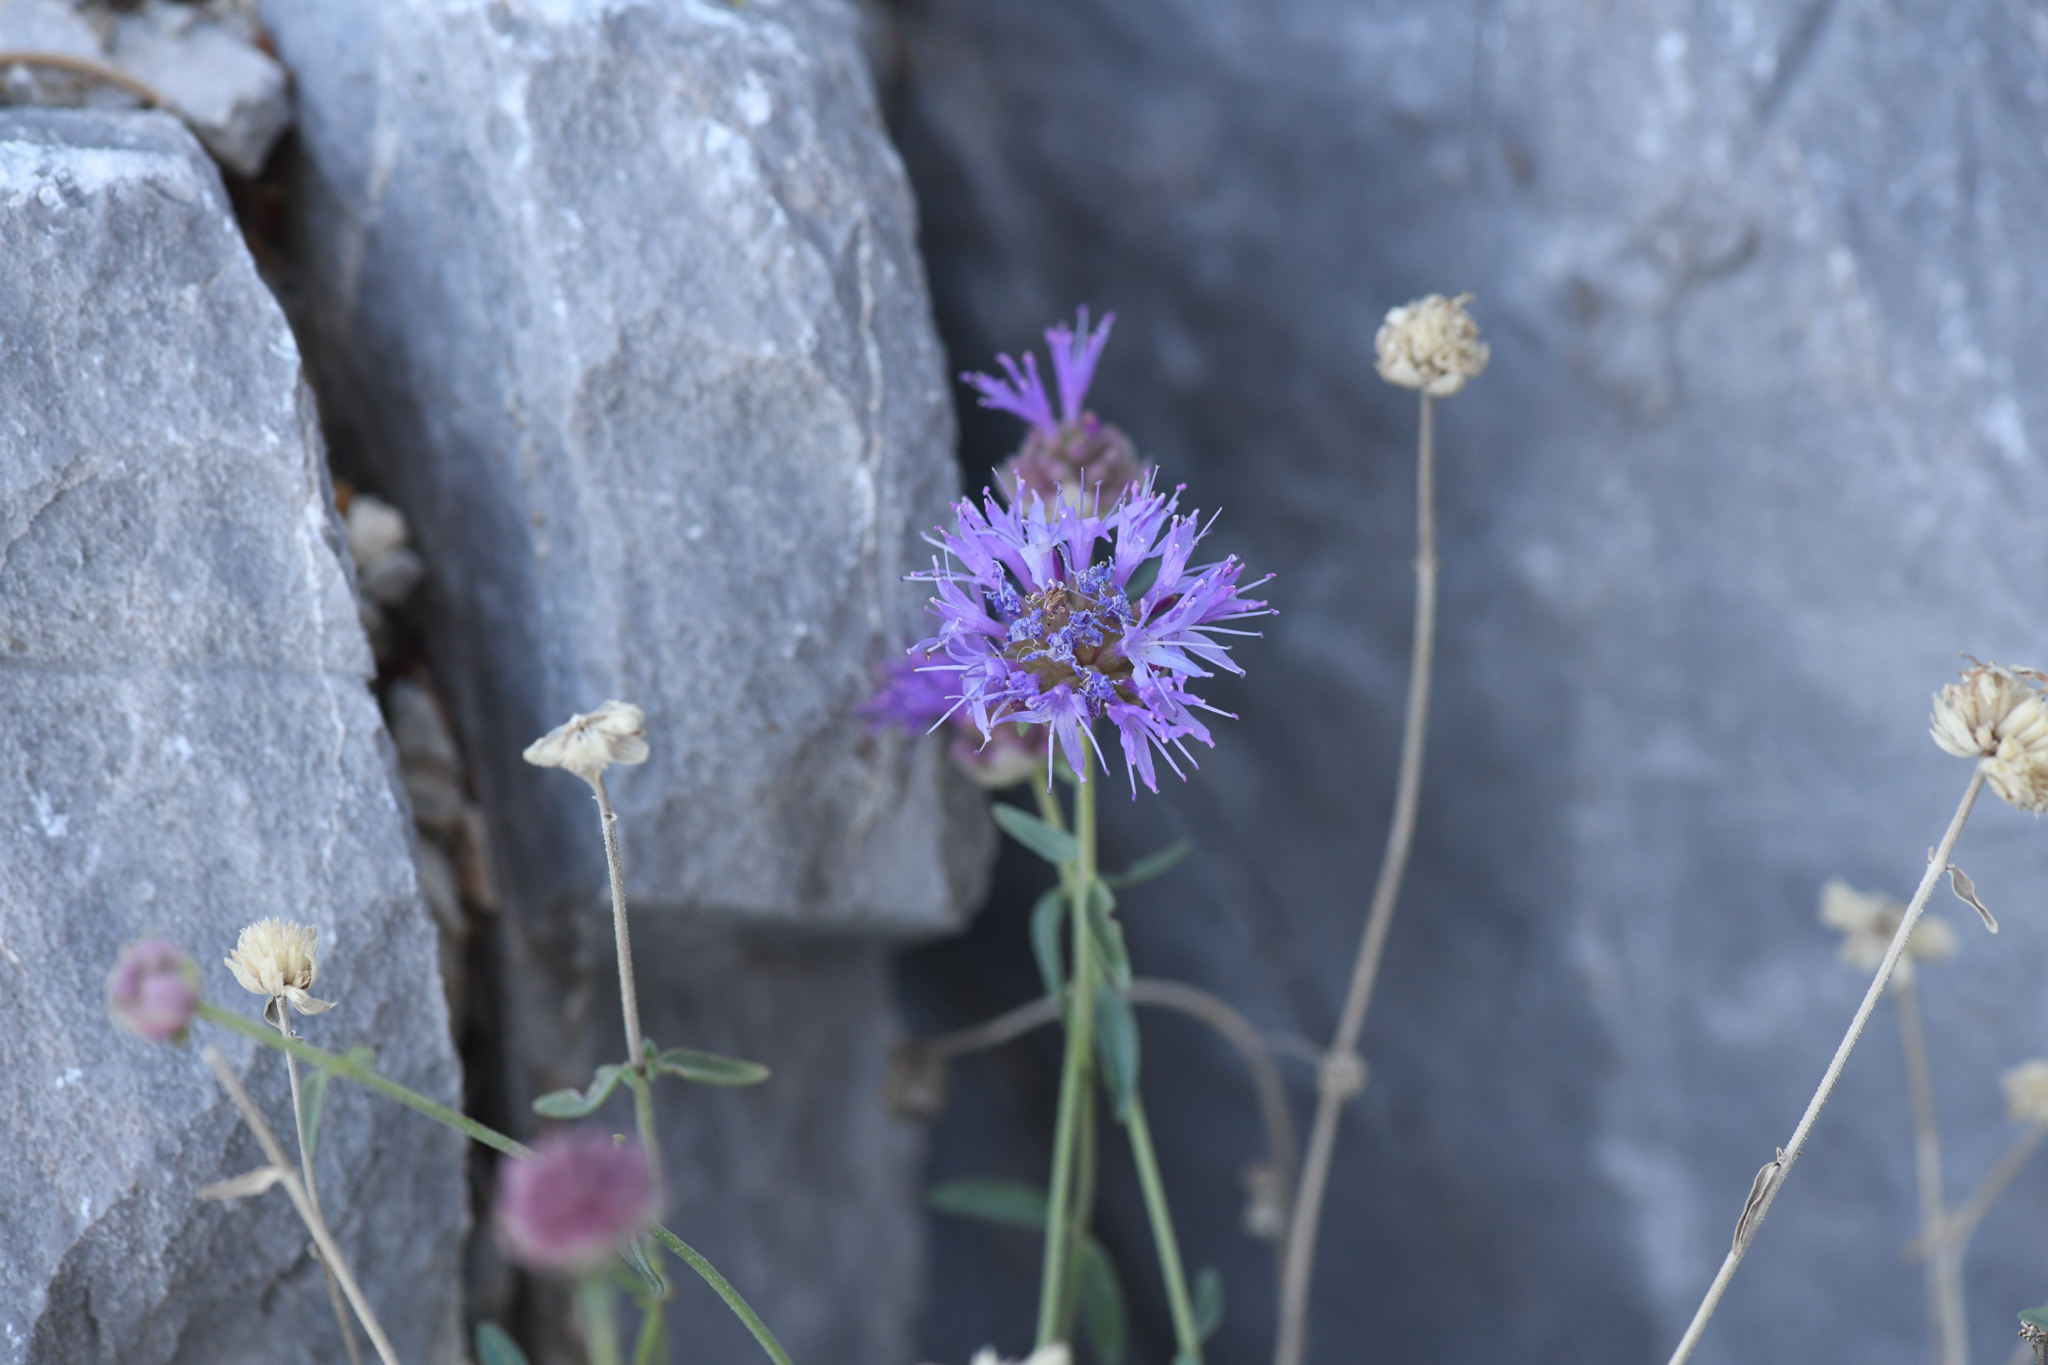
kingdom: Plantae
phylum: Tracheophyta
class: Magnoliopsida
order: Lamiales
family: Lamiaceae
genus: Monardella
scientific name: Monardella eremicola
